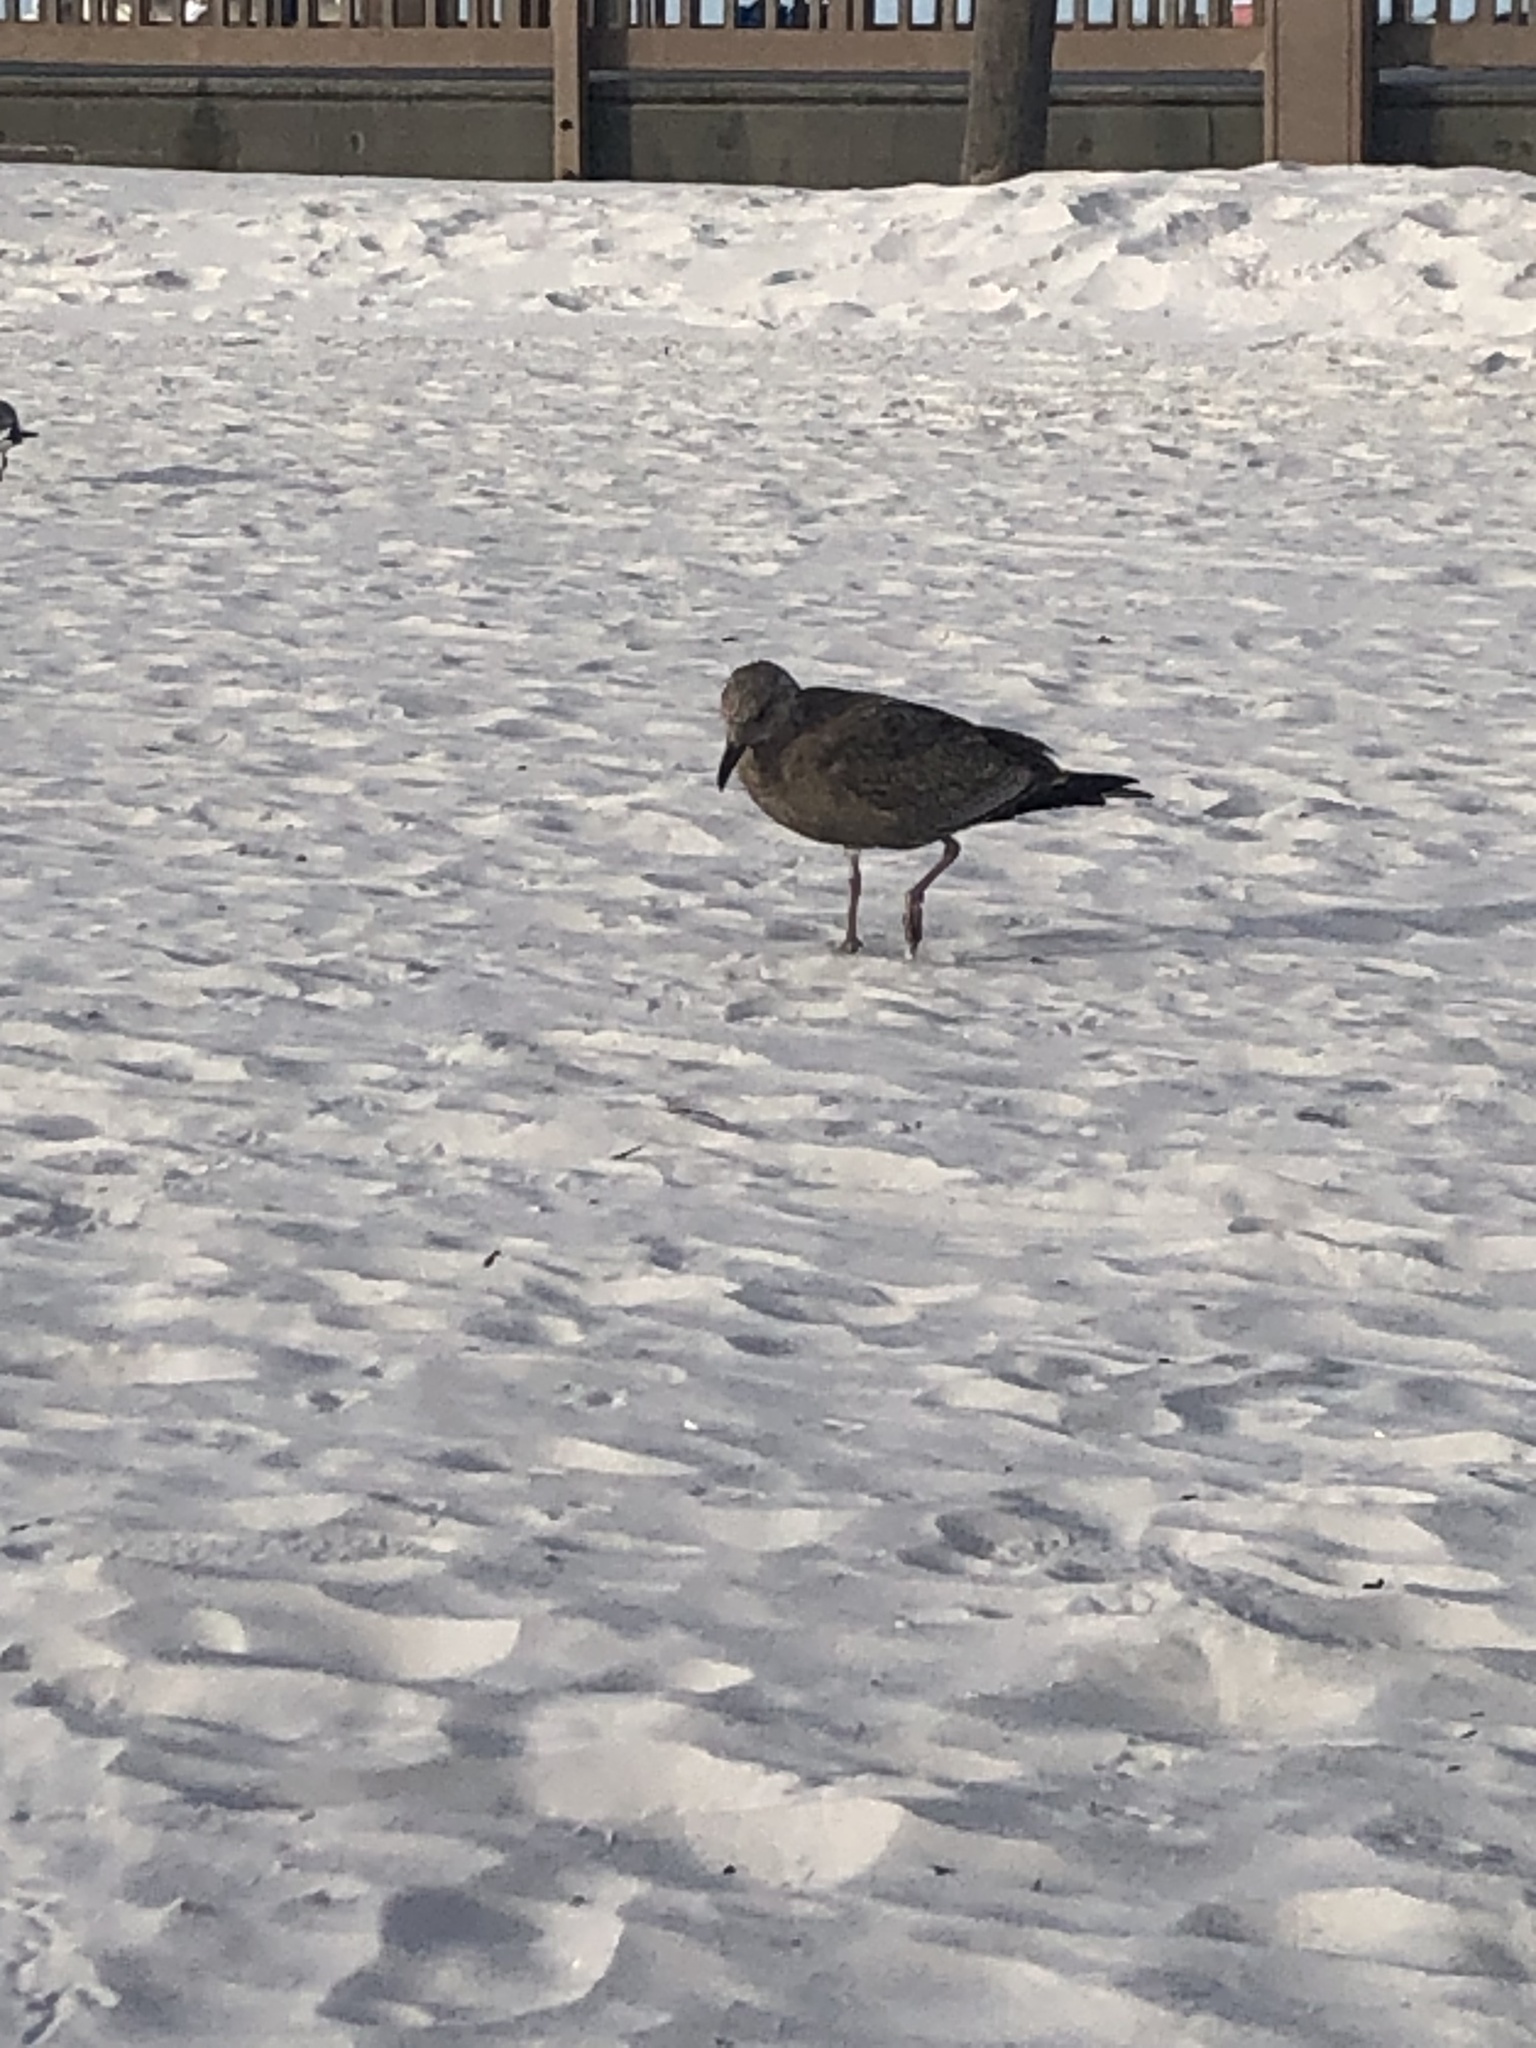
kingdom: Animalia
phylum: Chordata
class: Aves
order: Charadriiformes
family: Laridae
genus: Larus
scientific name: Larus argentatus
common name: Herring gull
